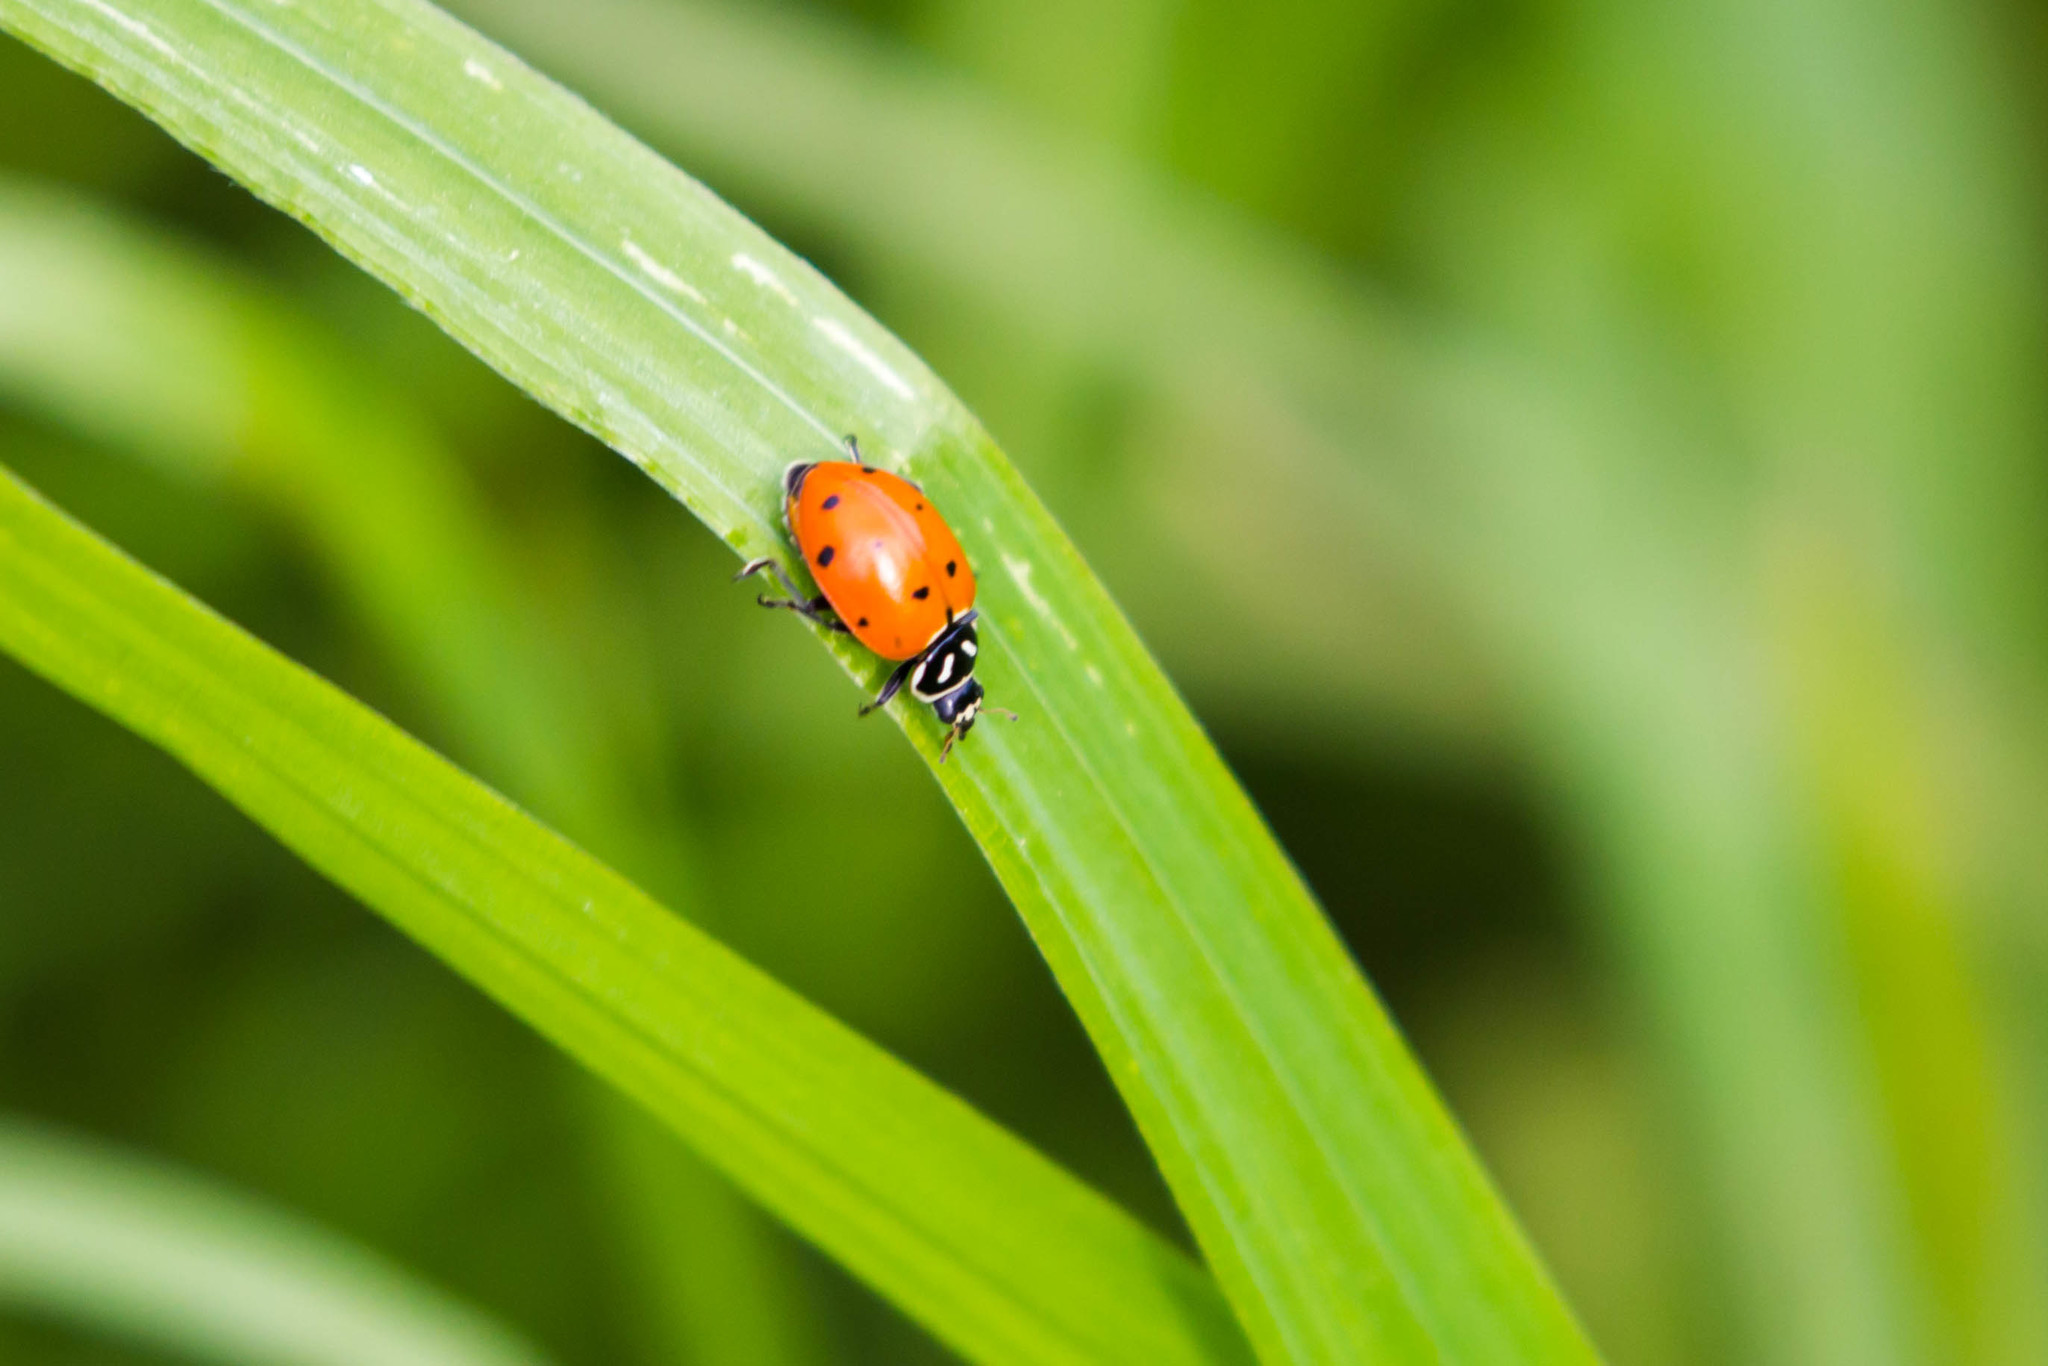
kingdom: Animalia
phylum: Arthropoda
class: Insecta
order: Coleoptera
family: Coccinellidae
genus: Hippodamia
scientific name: Hippodamia convergens
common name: Convergent lady beetle
